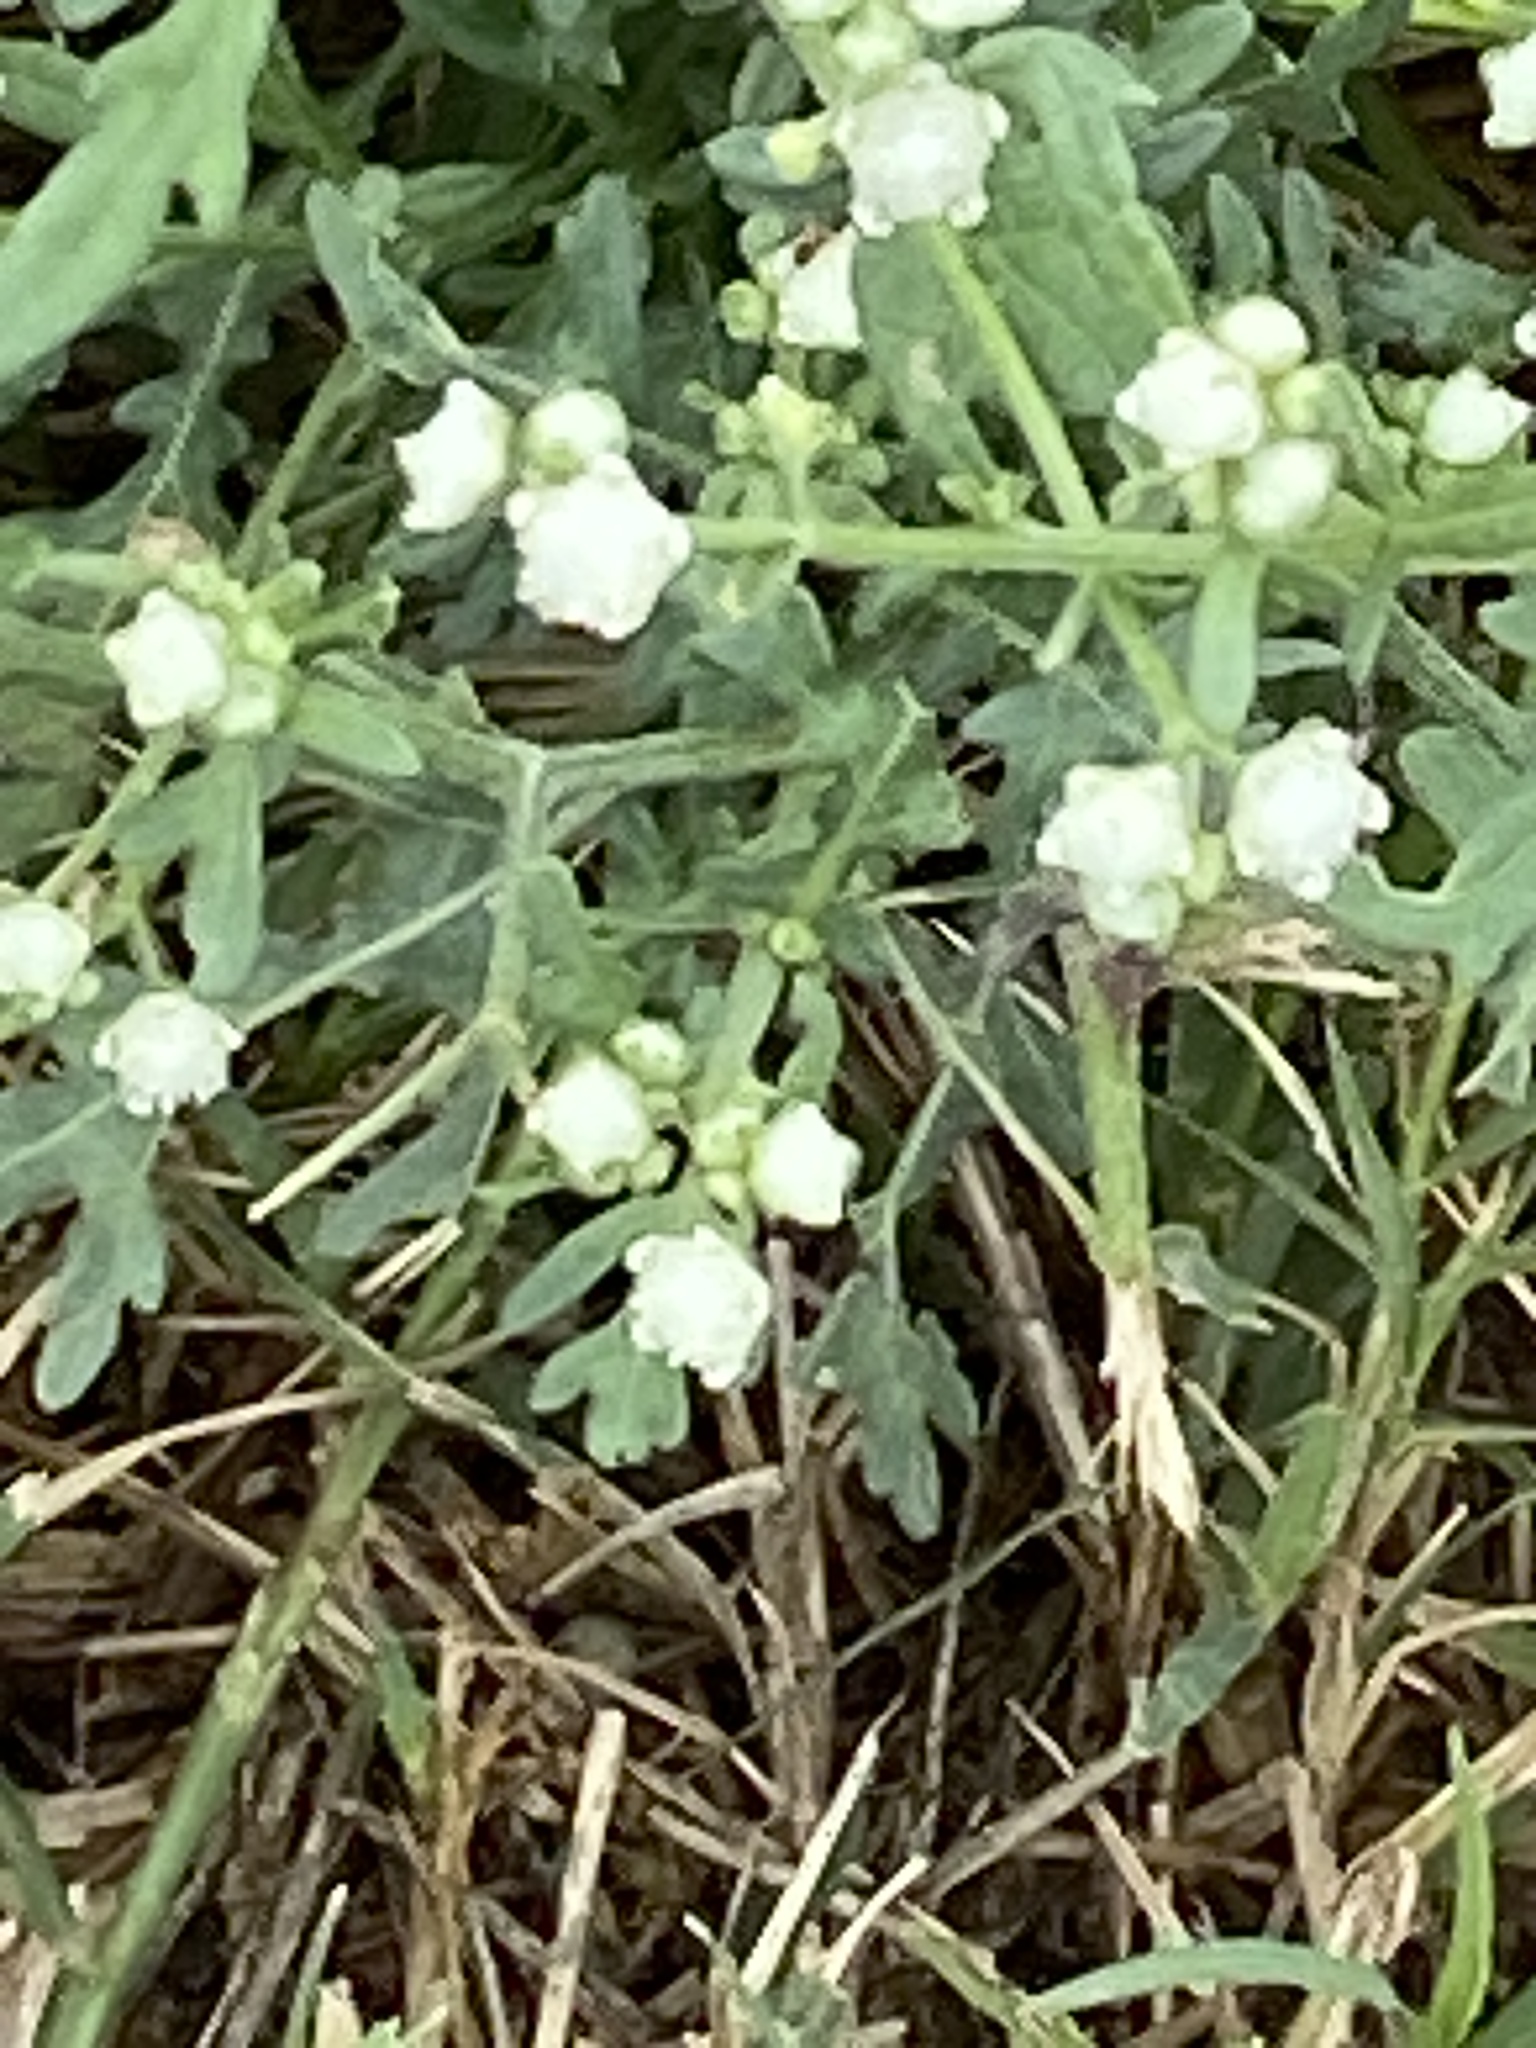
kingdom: Plantae
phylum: Tracheophyta
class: Magnoliopsida
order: Asterales
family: Asteraceae
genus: Parthenium
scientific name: Parthenium hysterophorus
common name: Santa maria feverfew
